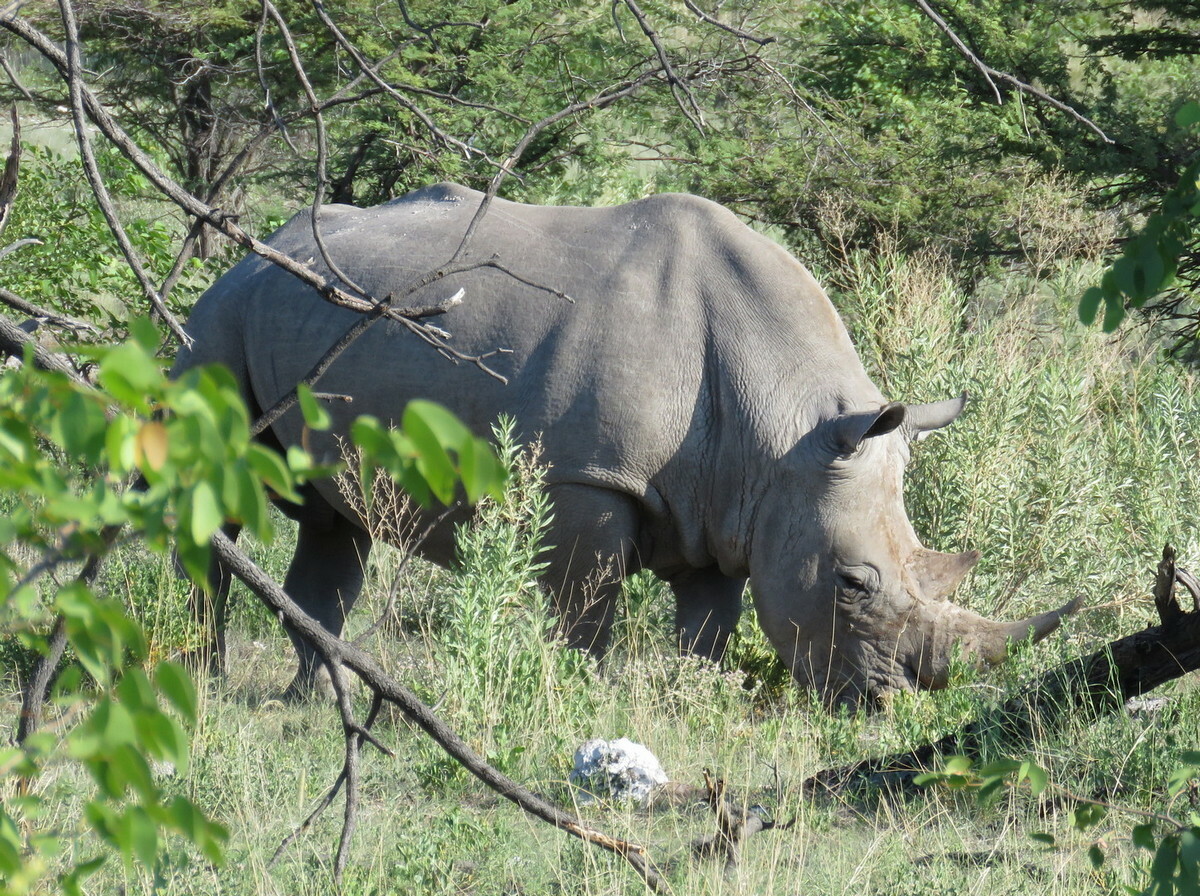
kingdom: Animalia
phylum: Chordata
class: Mammalia
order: Perissodactyla
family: Rhinocerotidae
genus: Ceratotherium
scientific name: Ceratotherium simum
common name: White rhinoceros
